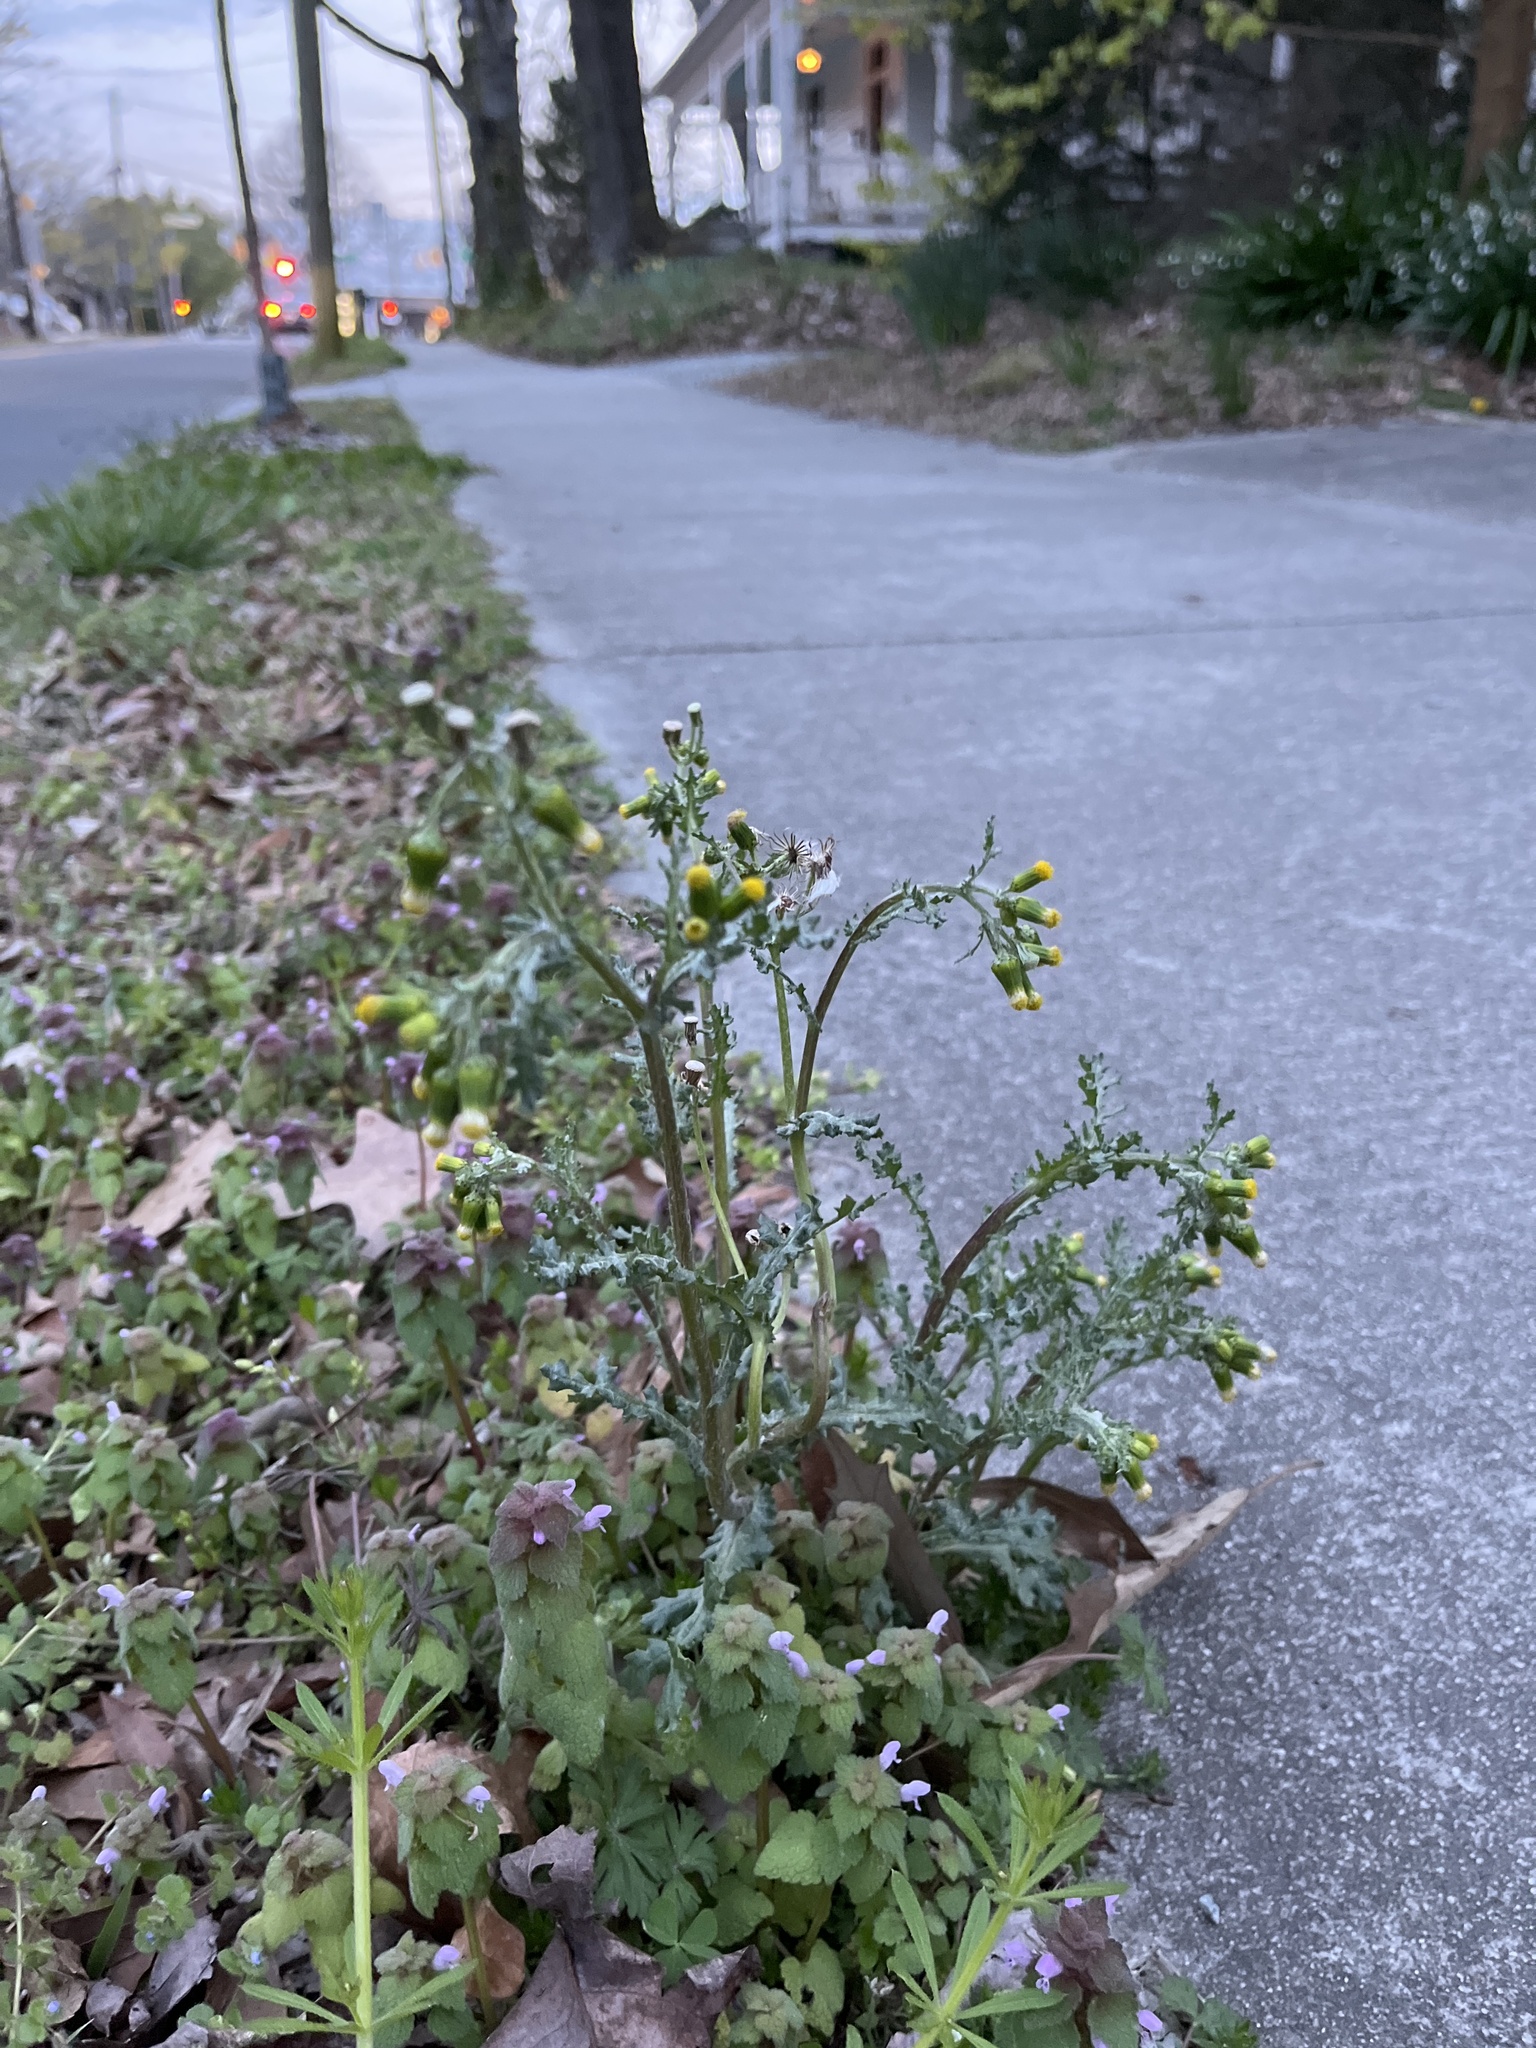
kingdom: Plantae
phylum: Tracheophyta
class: Magnoliopsida
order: Asterales
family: Asteraceae
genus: Senecio
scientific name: Senecio vulgaris
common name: Old-man-in-the-spring
